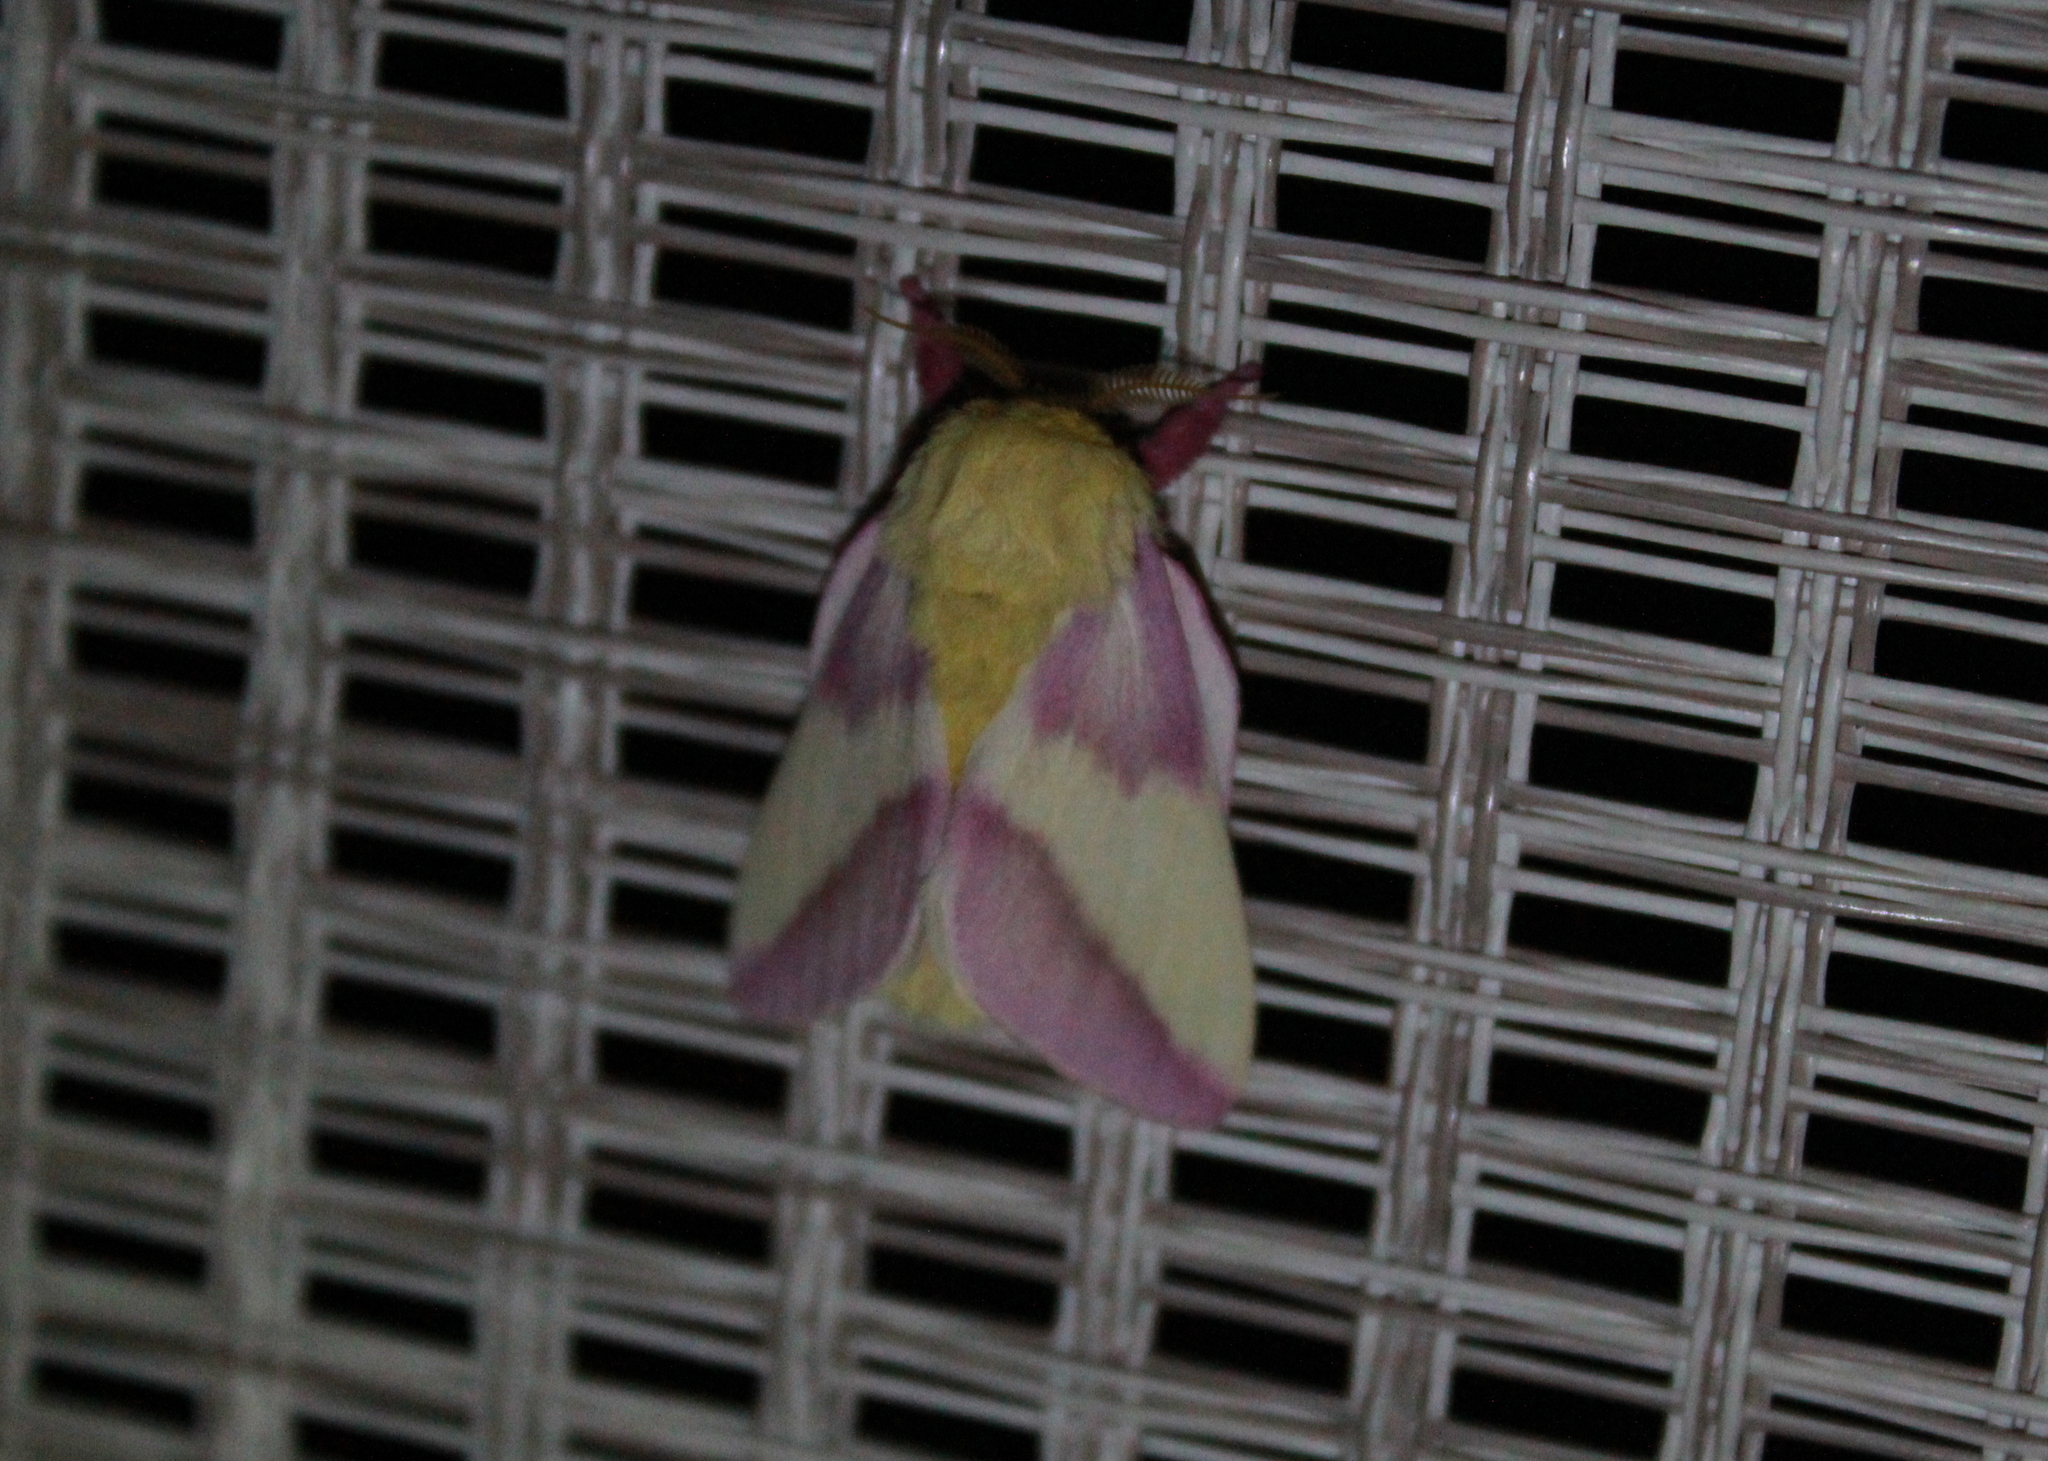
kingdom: Animalia
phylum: Arthropoda
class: Insecta
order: Lepidoptera
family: Saturniidae
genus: Dryocampa
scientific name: Dryocampa rubicunda
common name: Rosy maple moth
